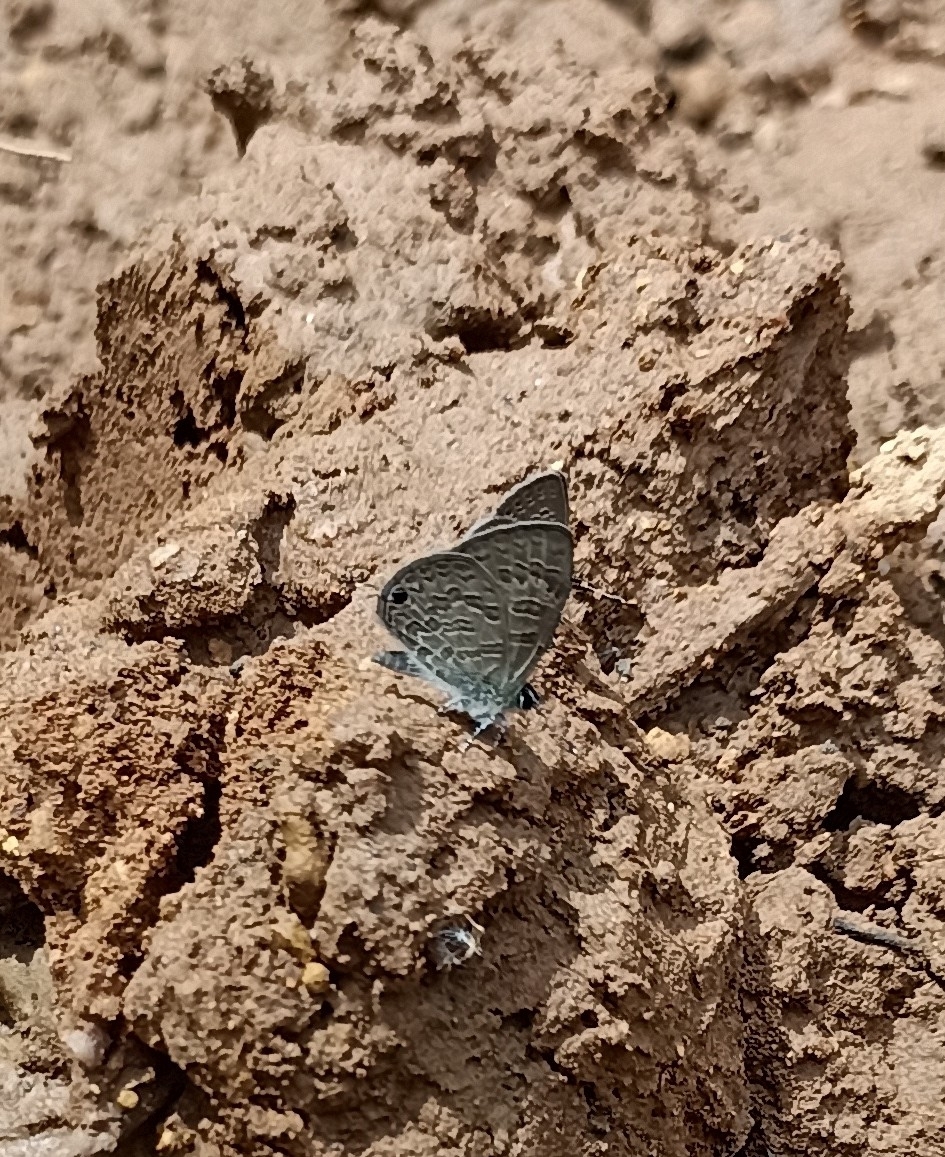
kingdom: Animalia
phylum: Arthropoda
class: Insecta
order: Lepidoptera
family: Lycaenidae
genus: Prosotas
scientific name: Prosotas nora
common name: Common line blue
